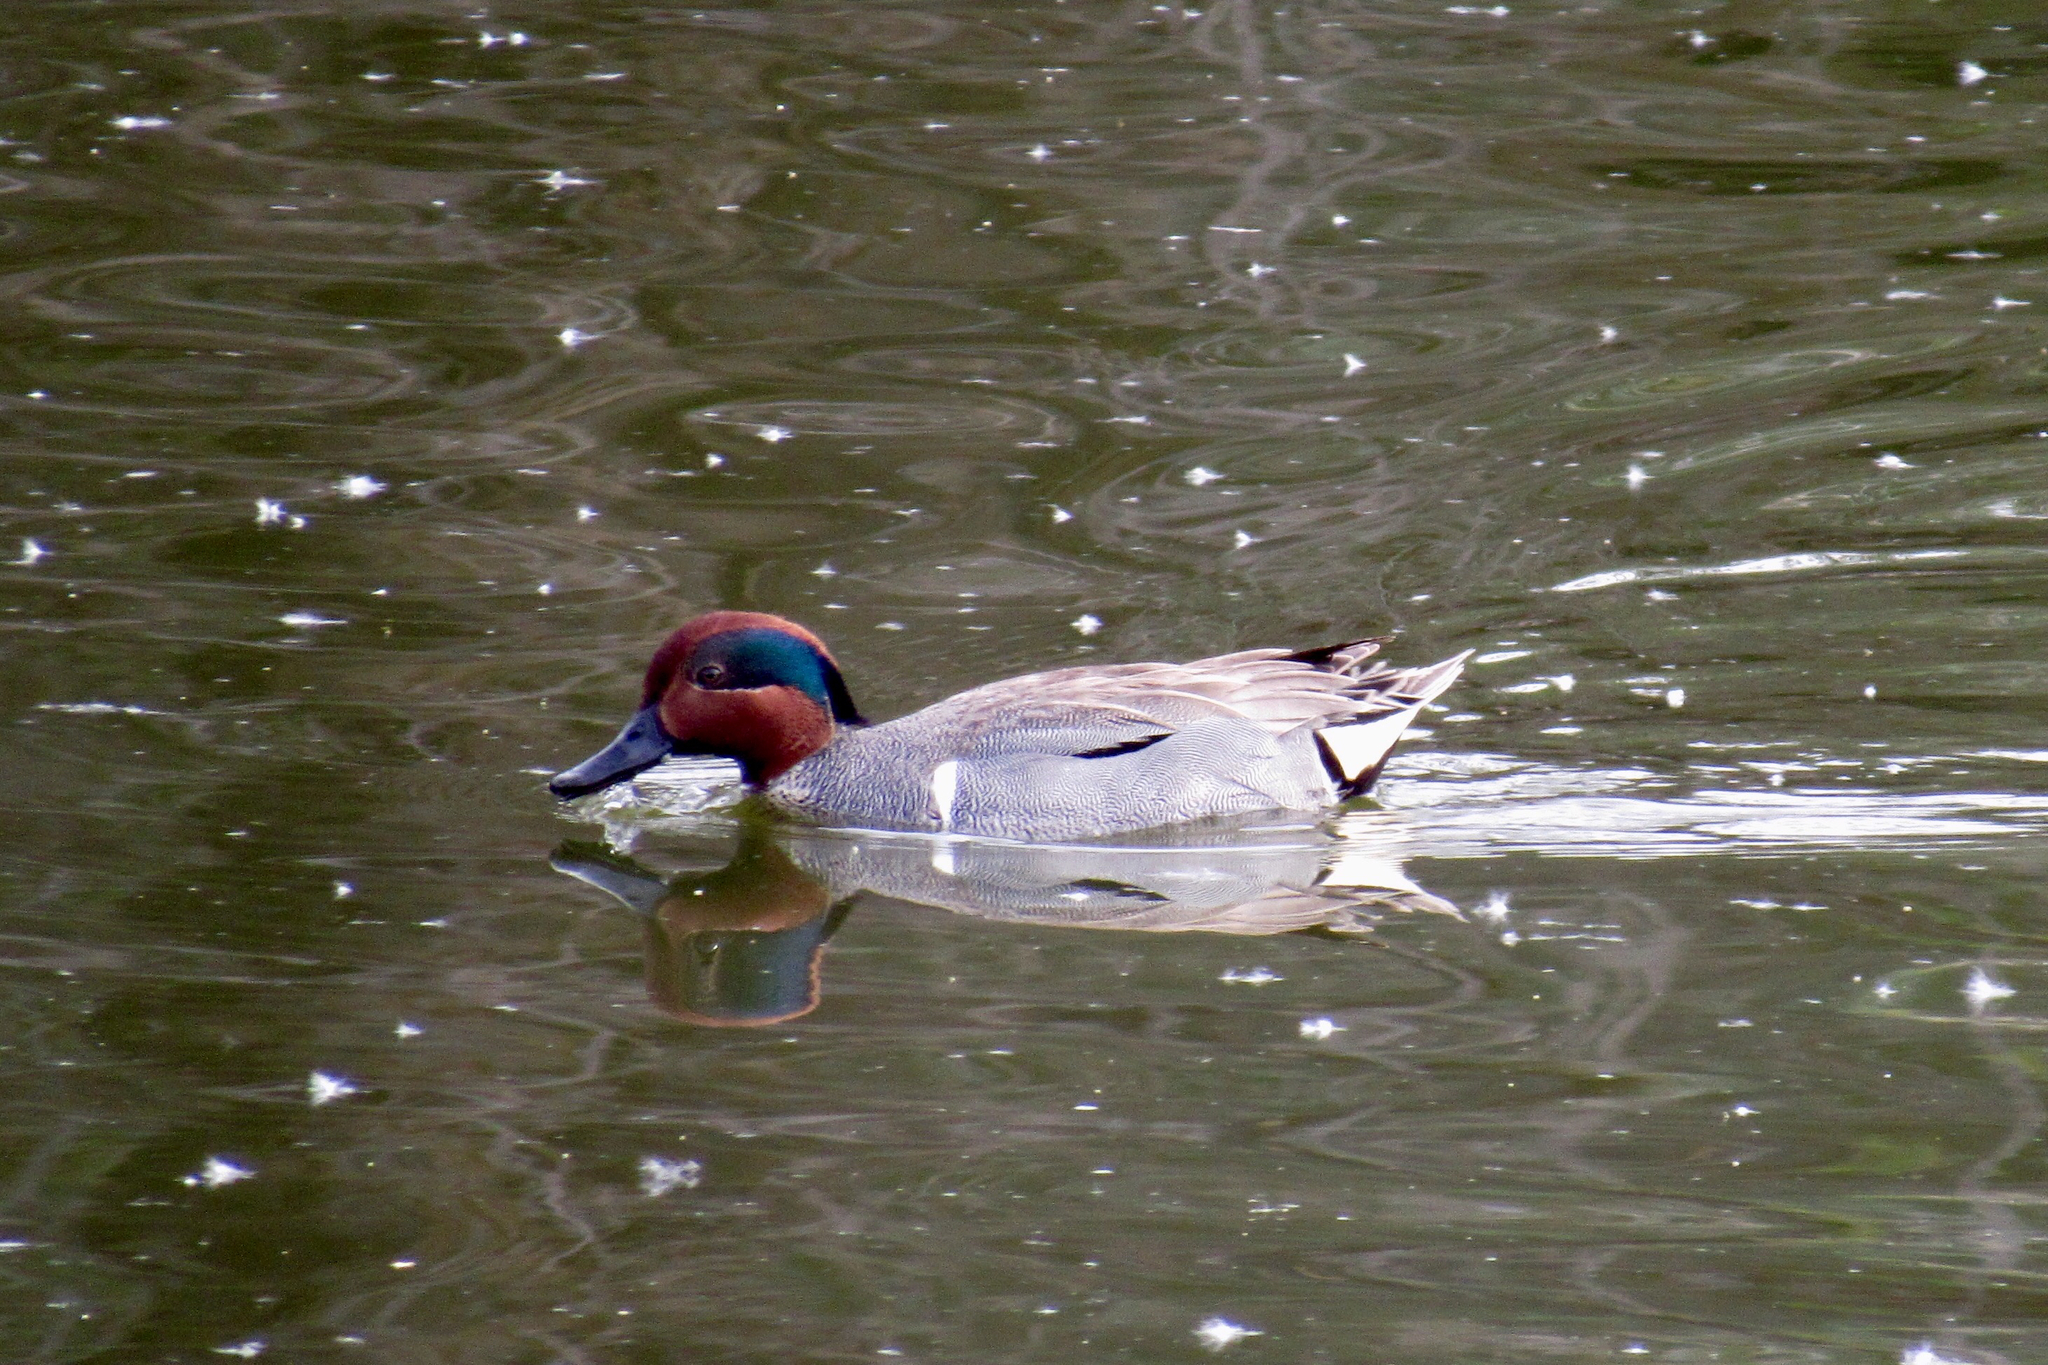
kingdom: Animalia
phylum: Chordata
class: Aves
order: Anseriformes
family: Anatidae
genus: Anas
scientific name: Anas carolinensis
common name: Green-winged teal
